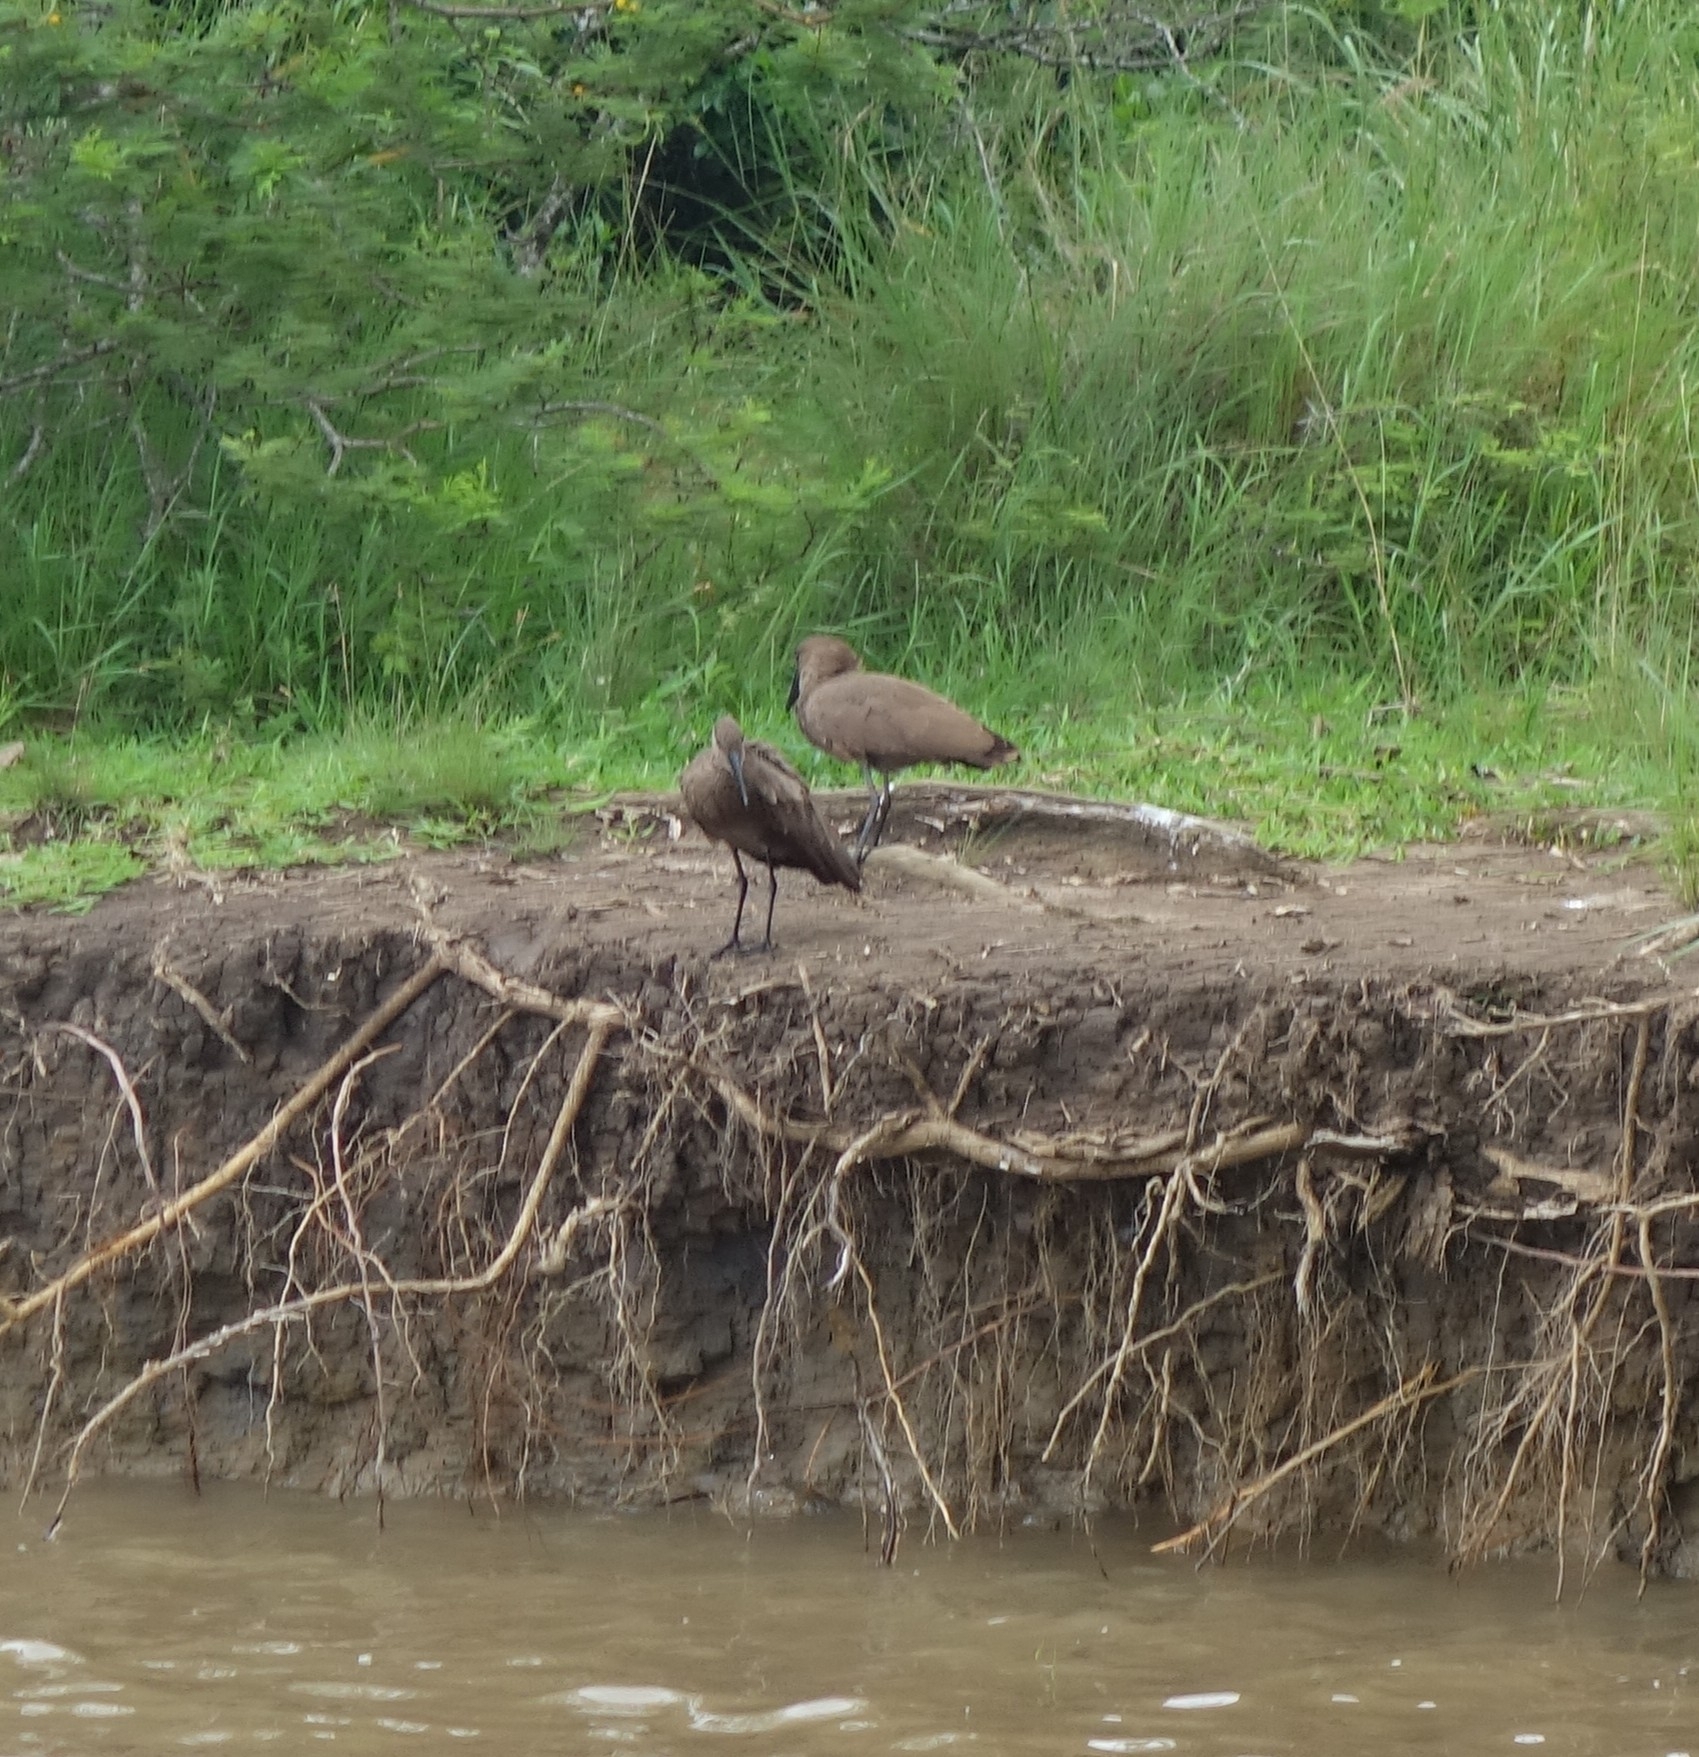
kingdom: Animalia
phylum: Chordata
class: Aves
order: Pelecaniformes
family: Scopidae
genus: Scopus
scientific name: Scopus umbretta
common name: Hamerkop
